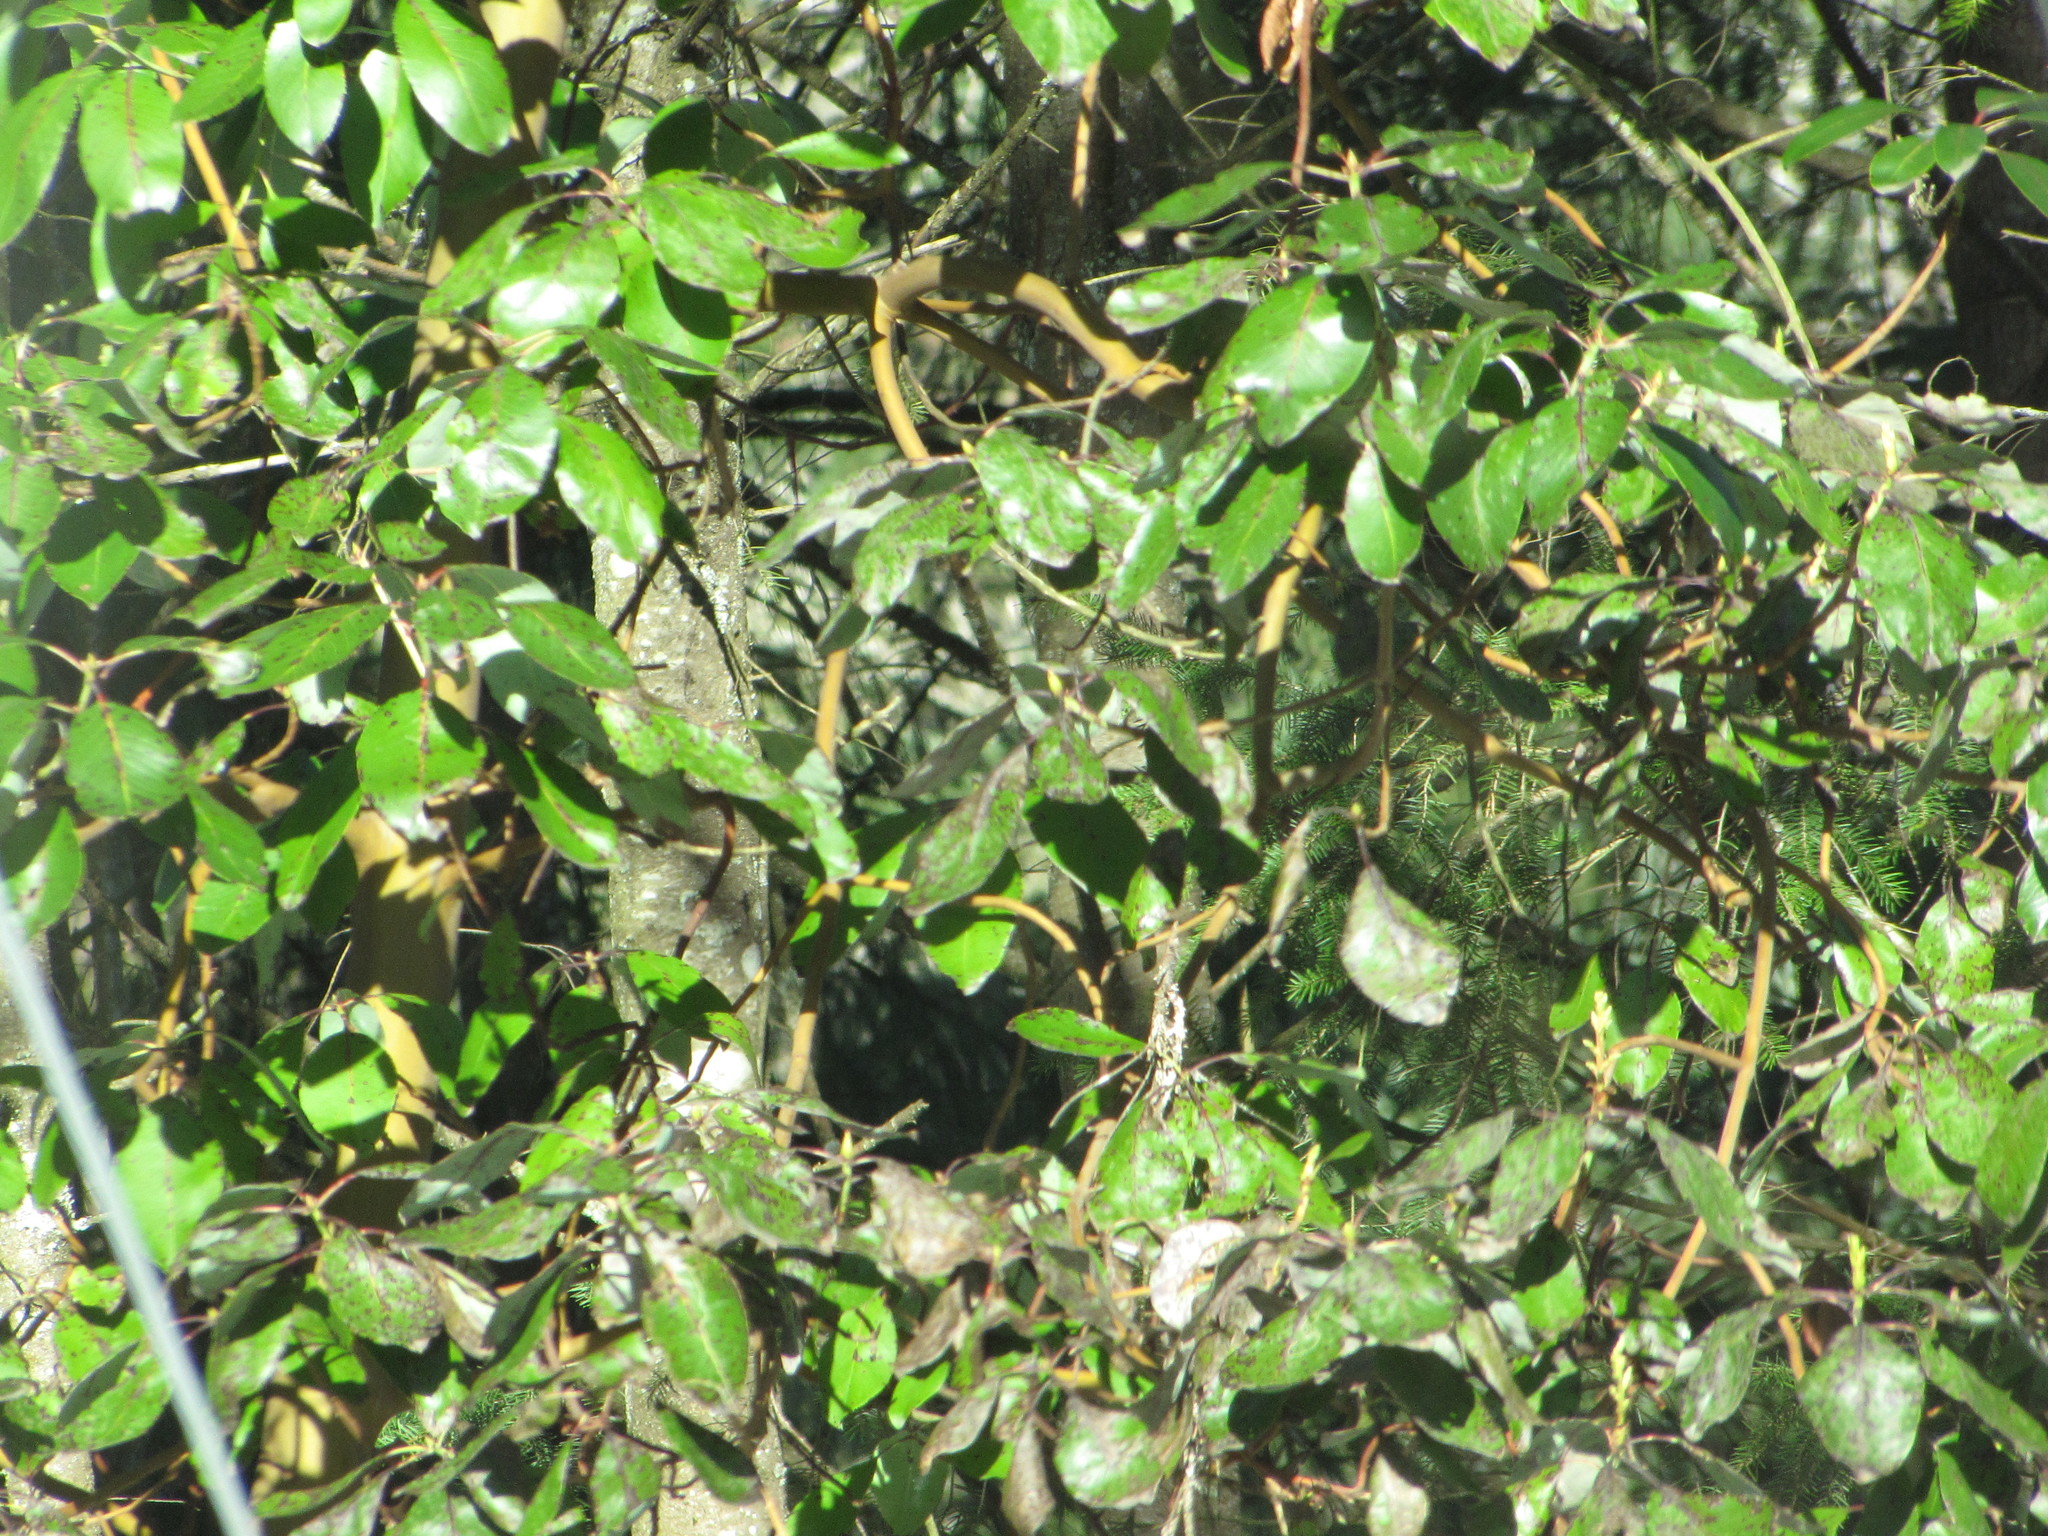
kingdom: Plantae
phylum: Tracheophyta
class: Magnoliopsida
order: Ericales
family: Ericaceae
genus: Arbutus
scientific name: Arbutus menziesii
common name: Pacific madrone
